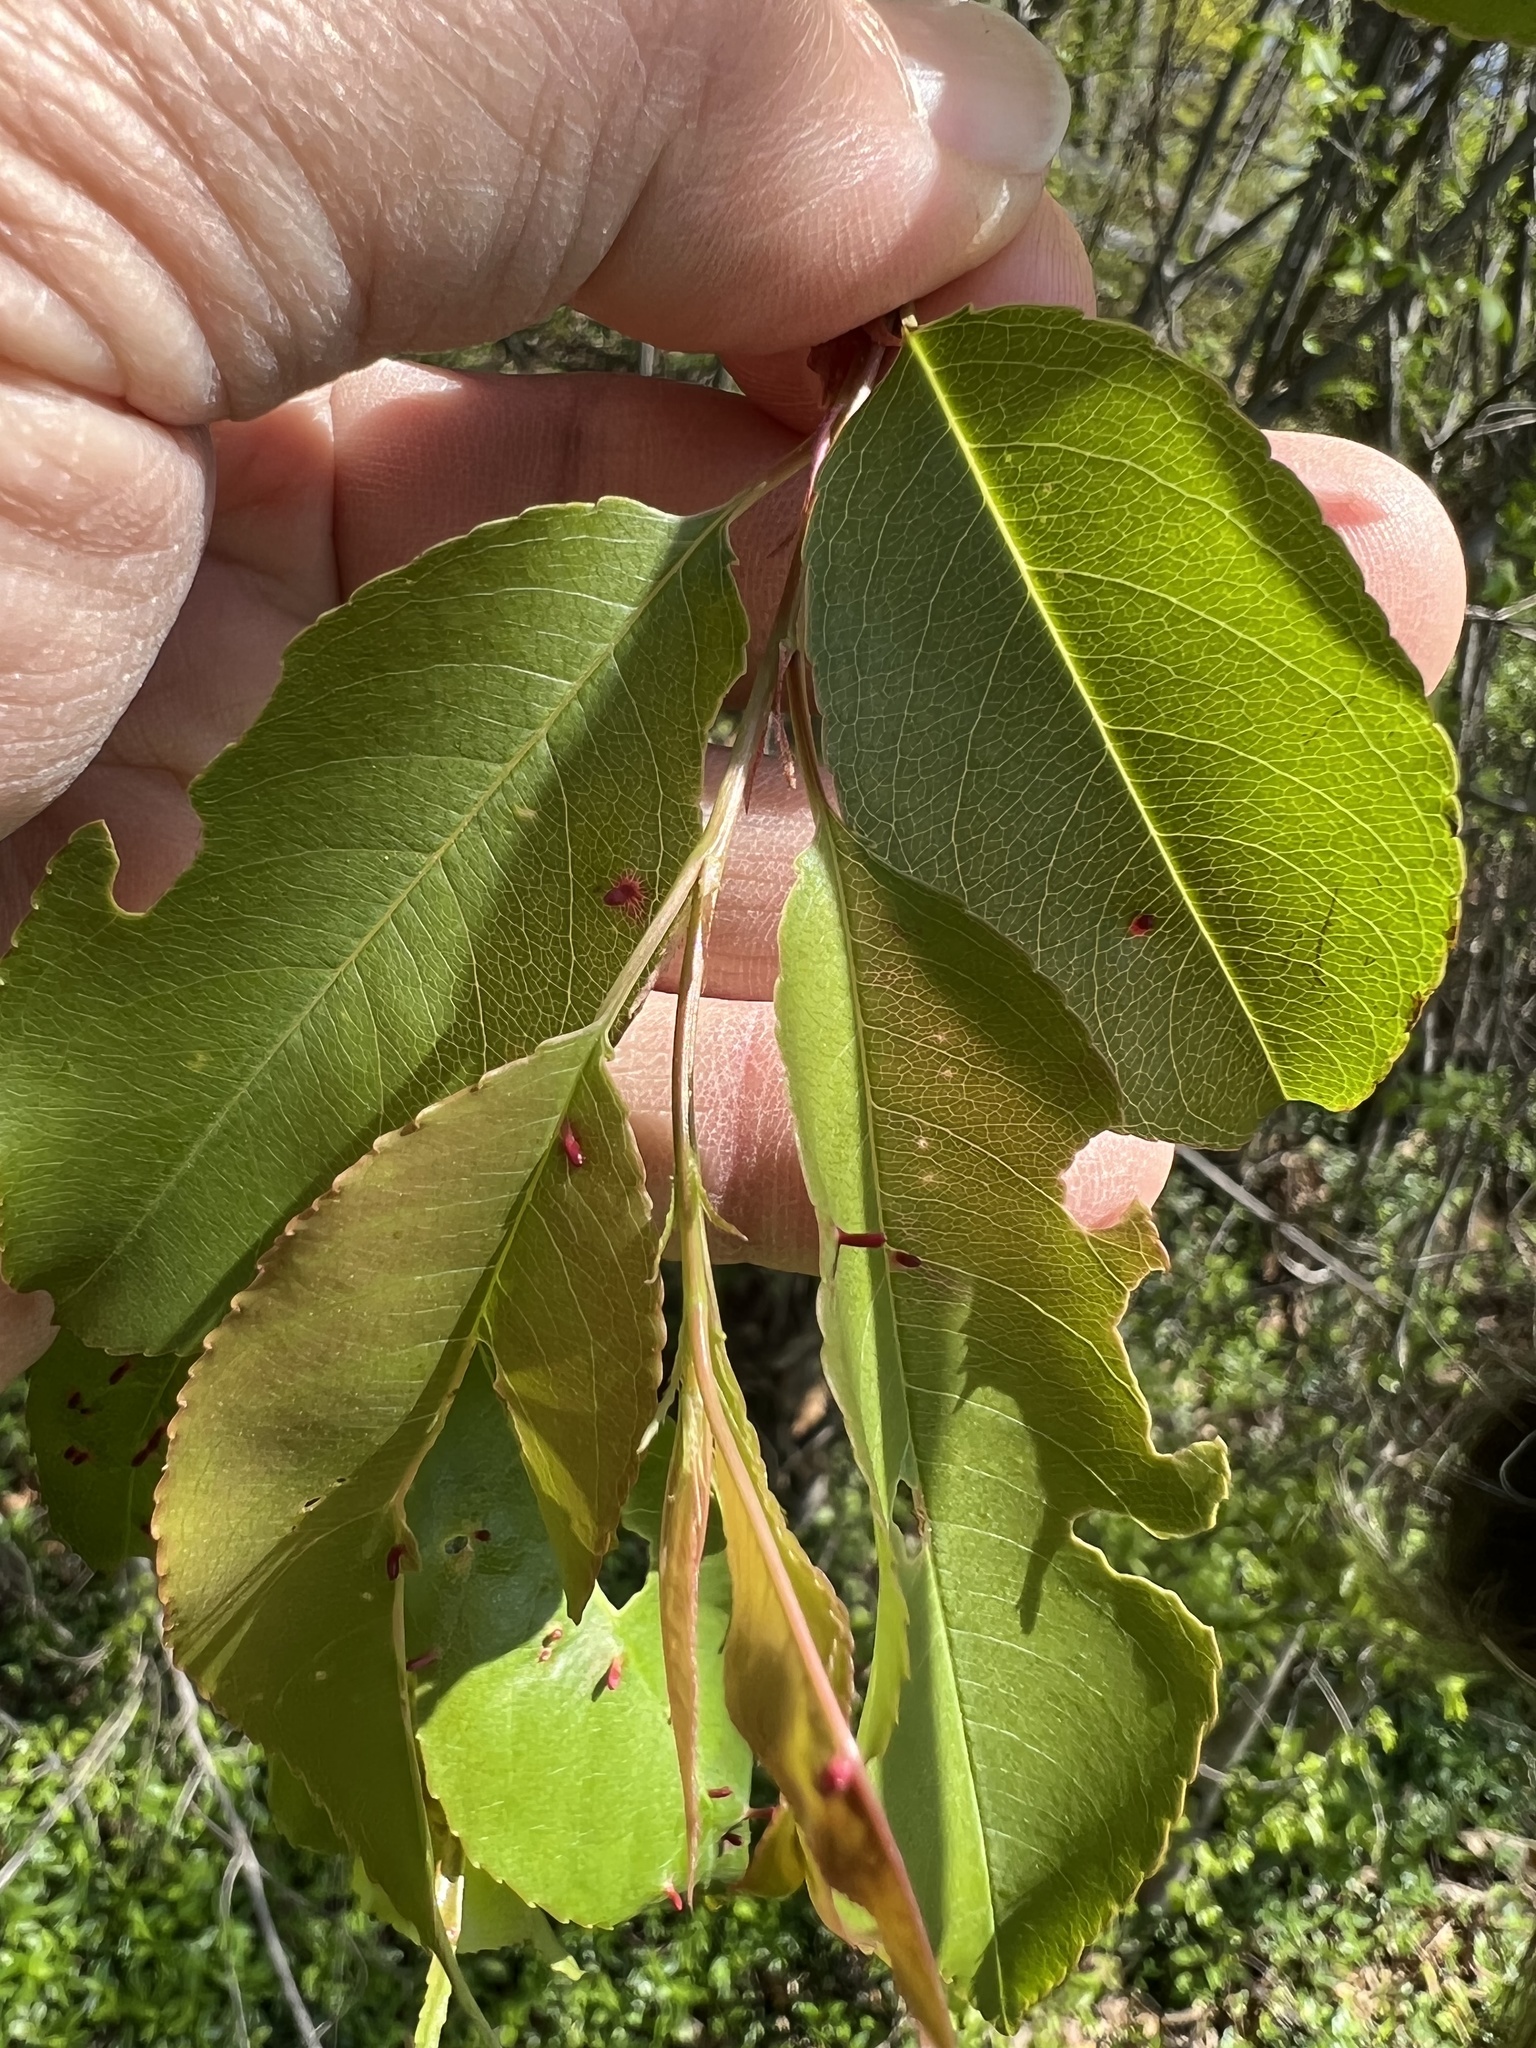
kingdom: Animalia
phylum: Arthropoda
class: Insecta
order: Lepidoptera
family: Lasiocampidae
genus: Malacosoma
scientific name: Malacosoma americana
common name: Eastern tent caterpillar moth
